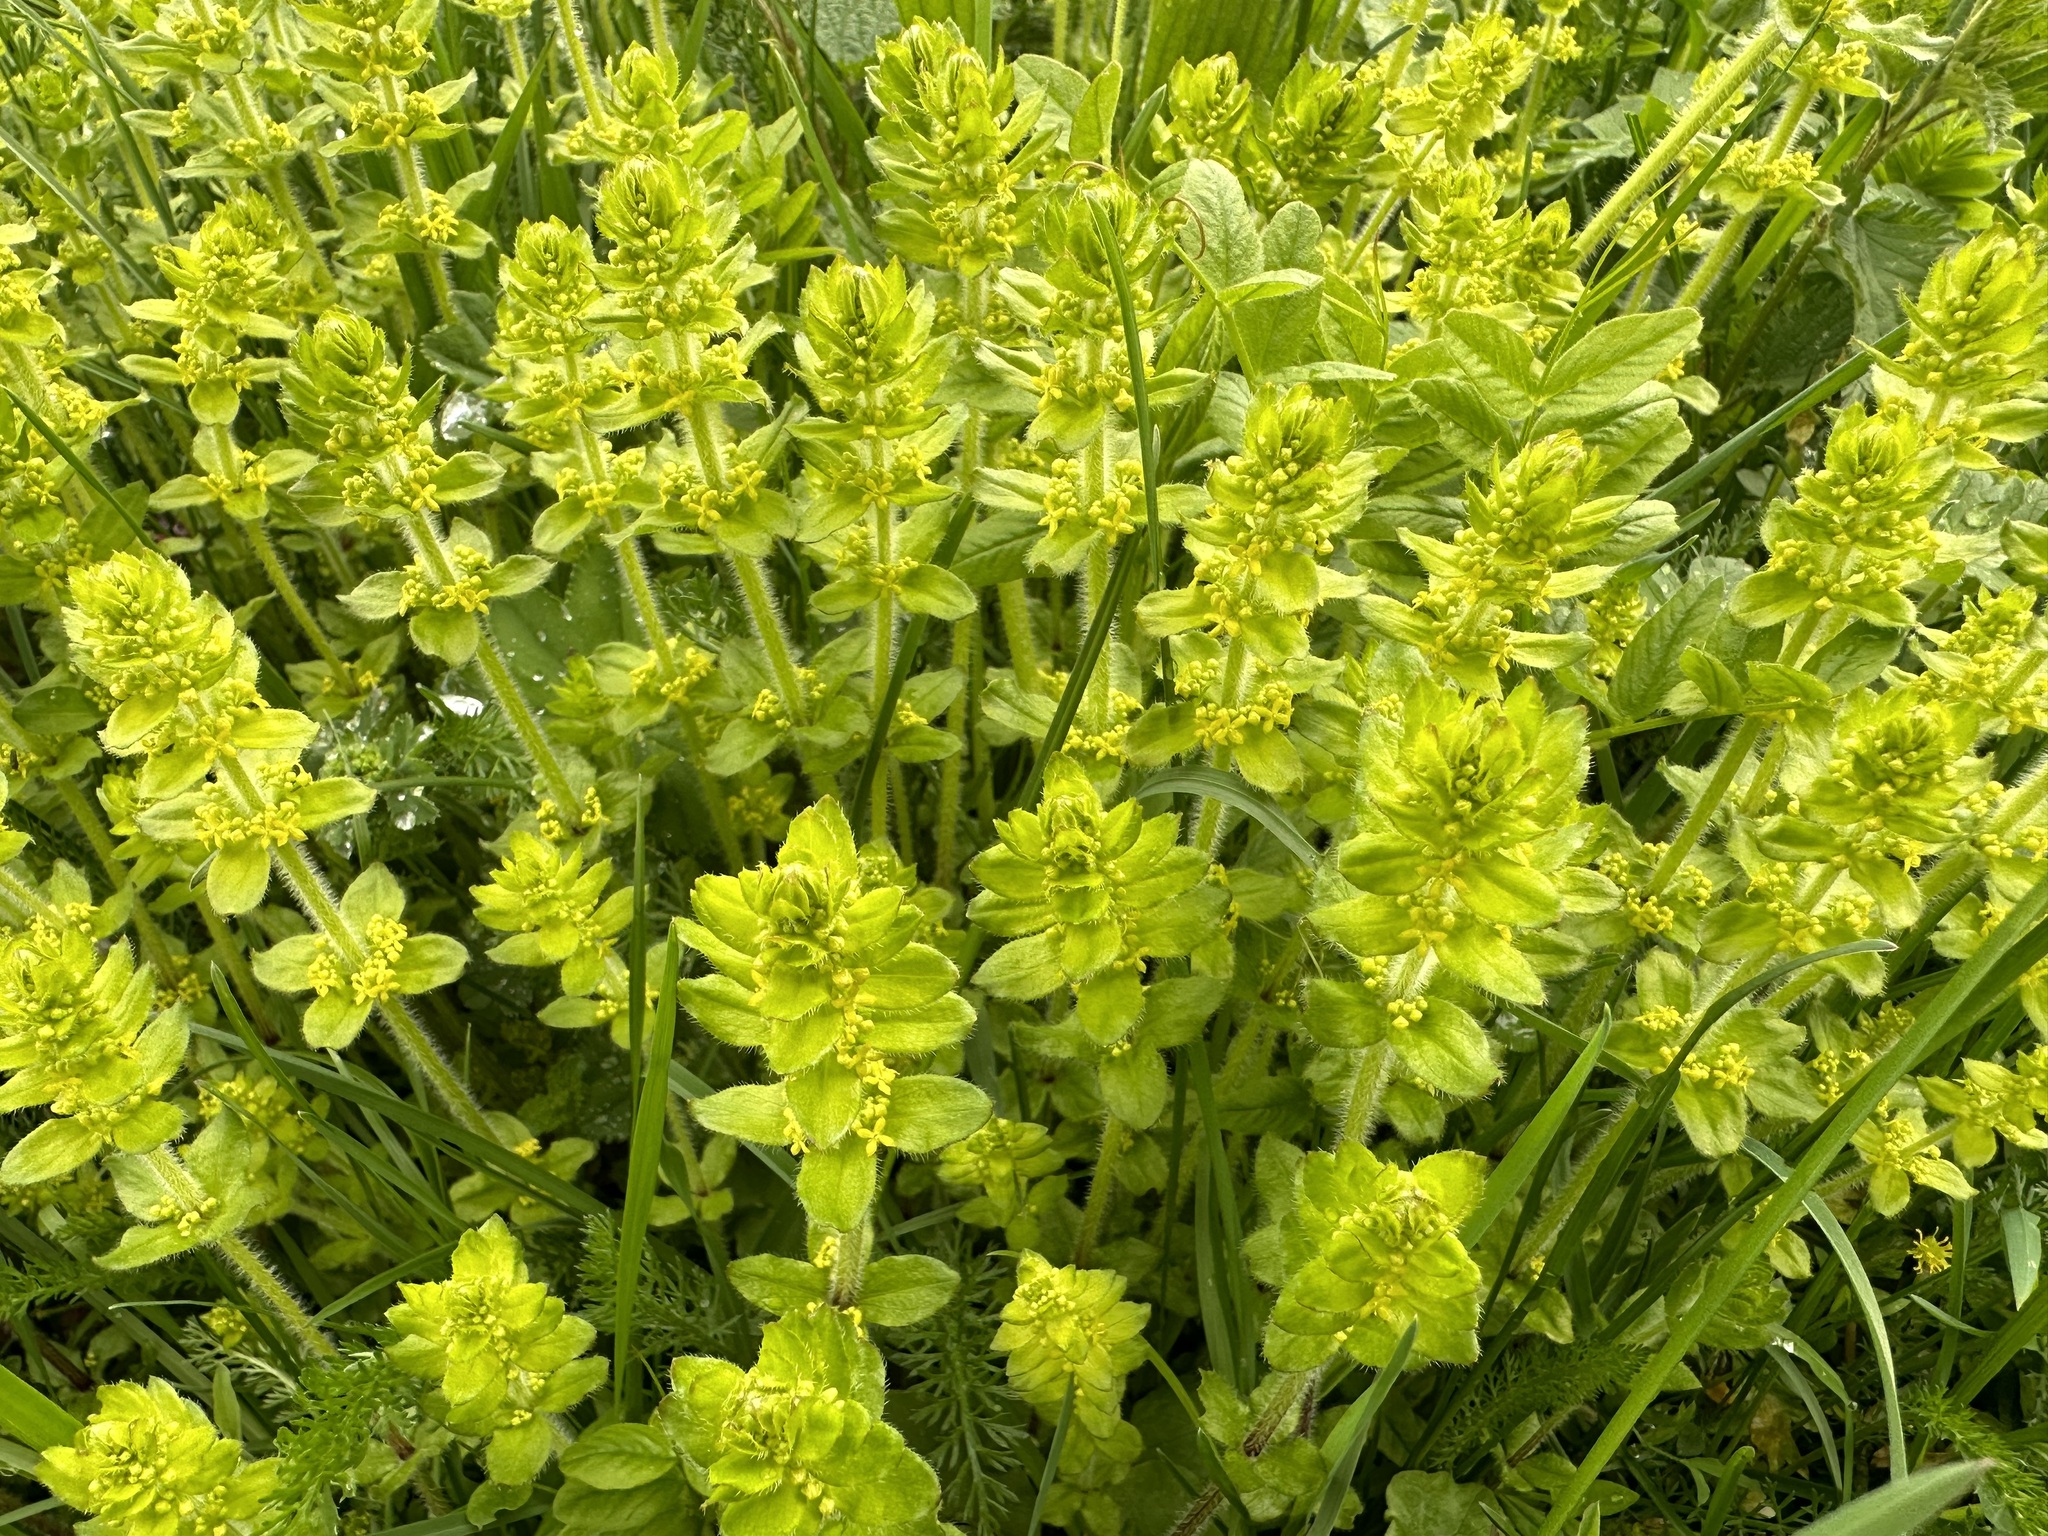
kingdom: Plantae
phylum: Tracheophyta
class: Magnoliopsida
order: Gentianales
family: Rubiaceae
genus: Cruciata
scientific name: Cruciata laevipes
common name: Crosswort
